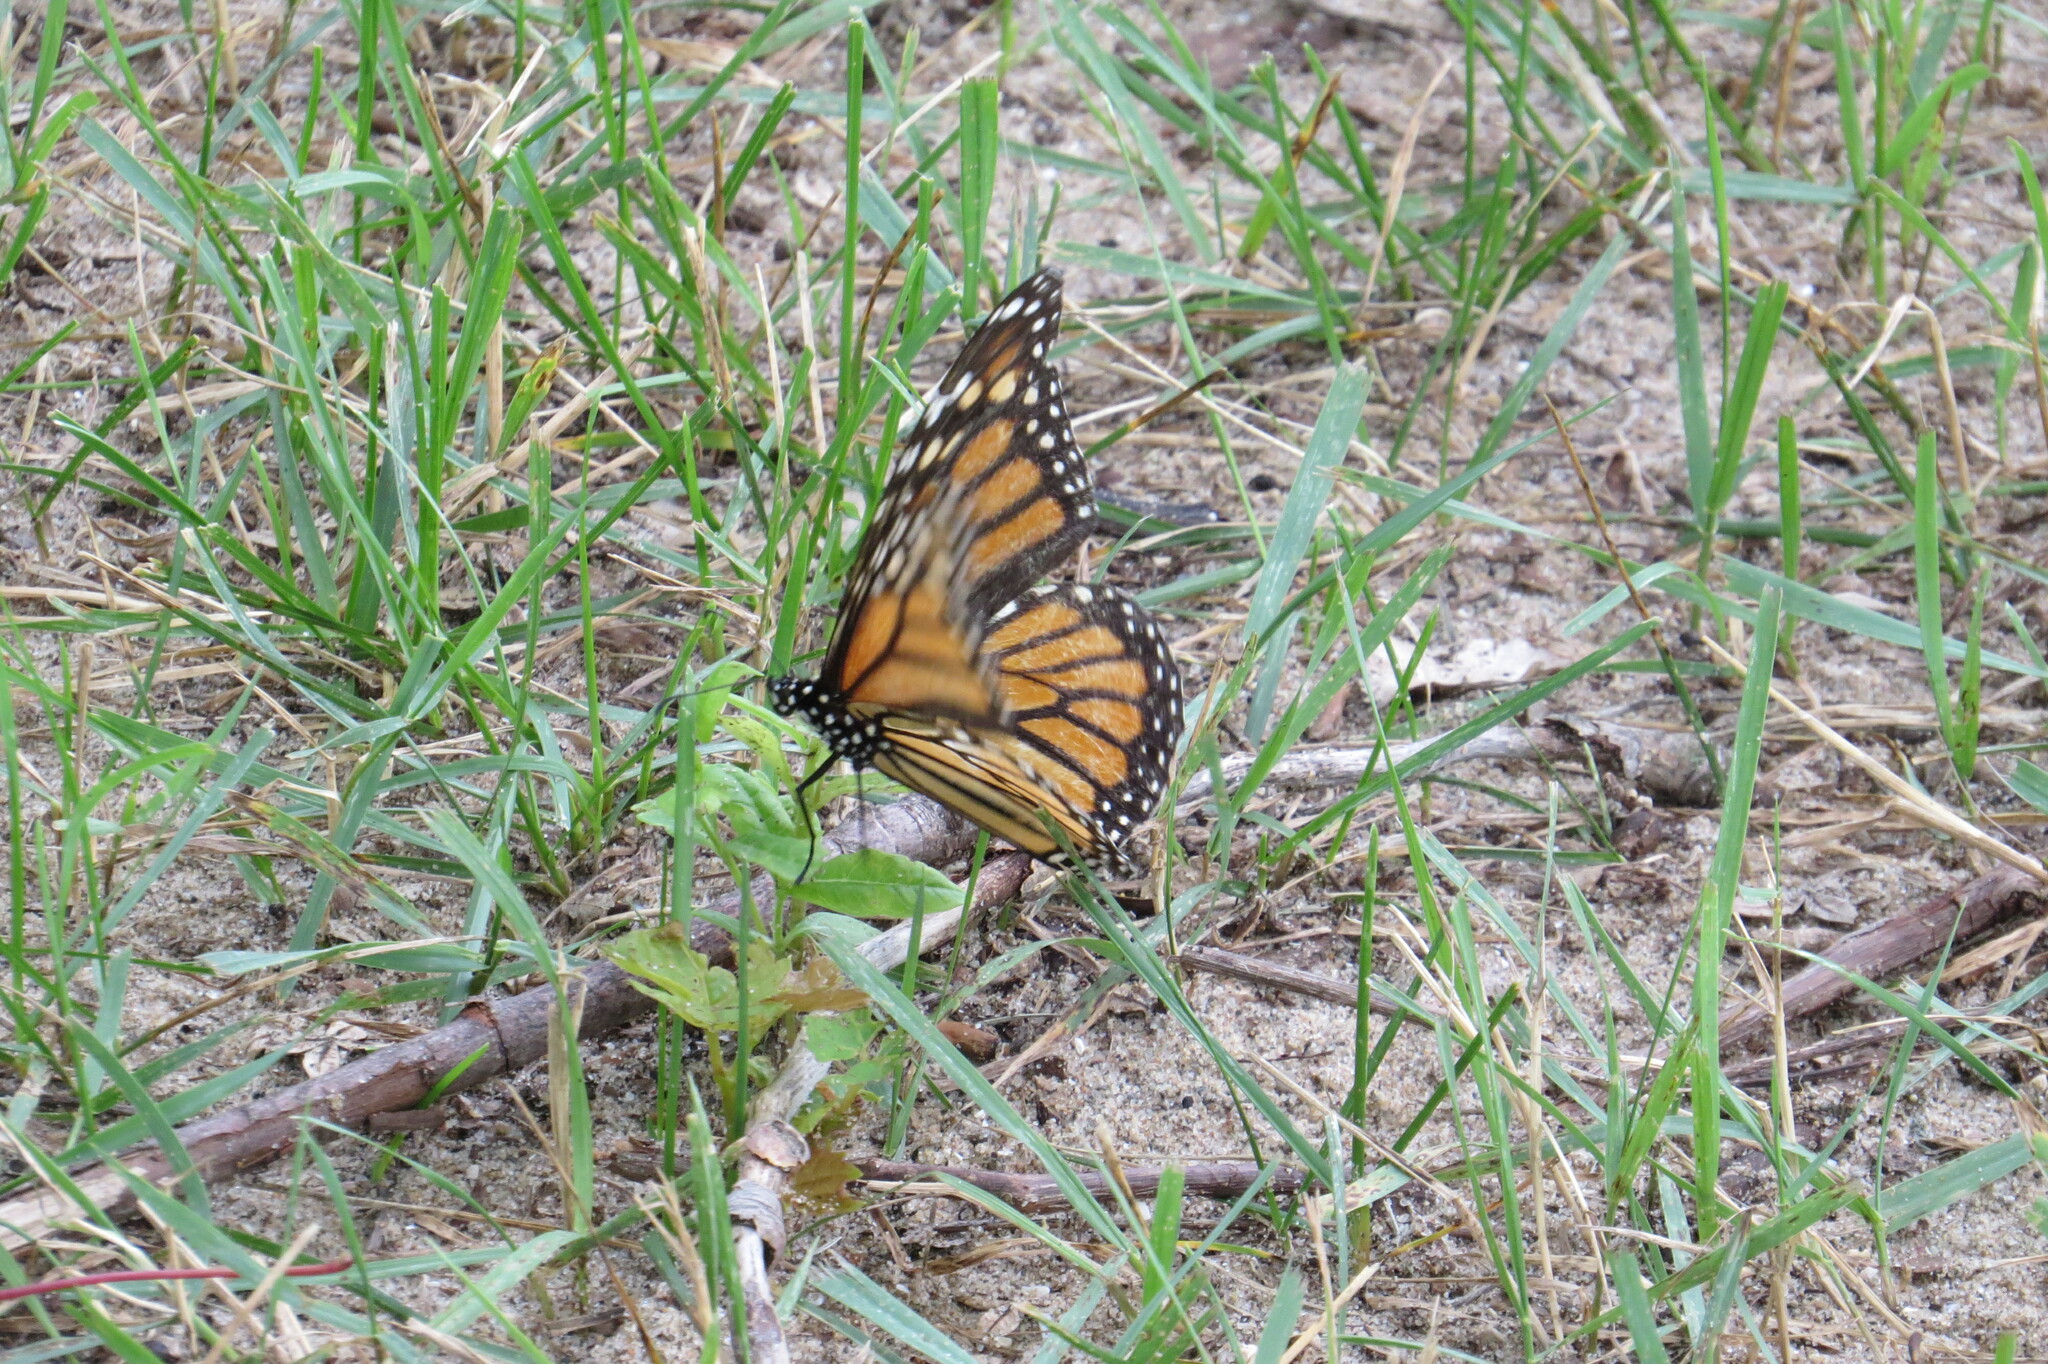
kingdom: Animalia
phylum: Arthropoda
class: Insecta
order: Lepidoptera
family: Nymphalidae
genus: Danaus
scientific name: Danaus plexippus
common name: Monarch
